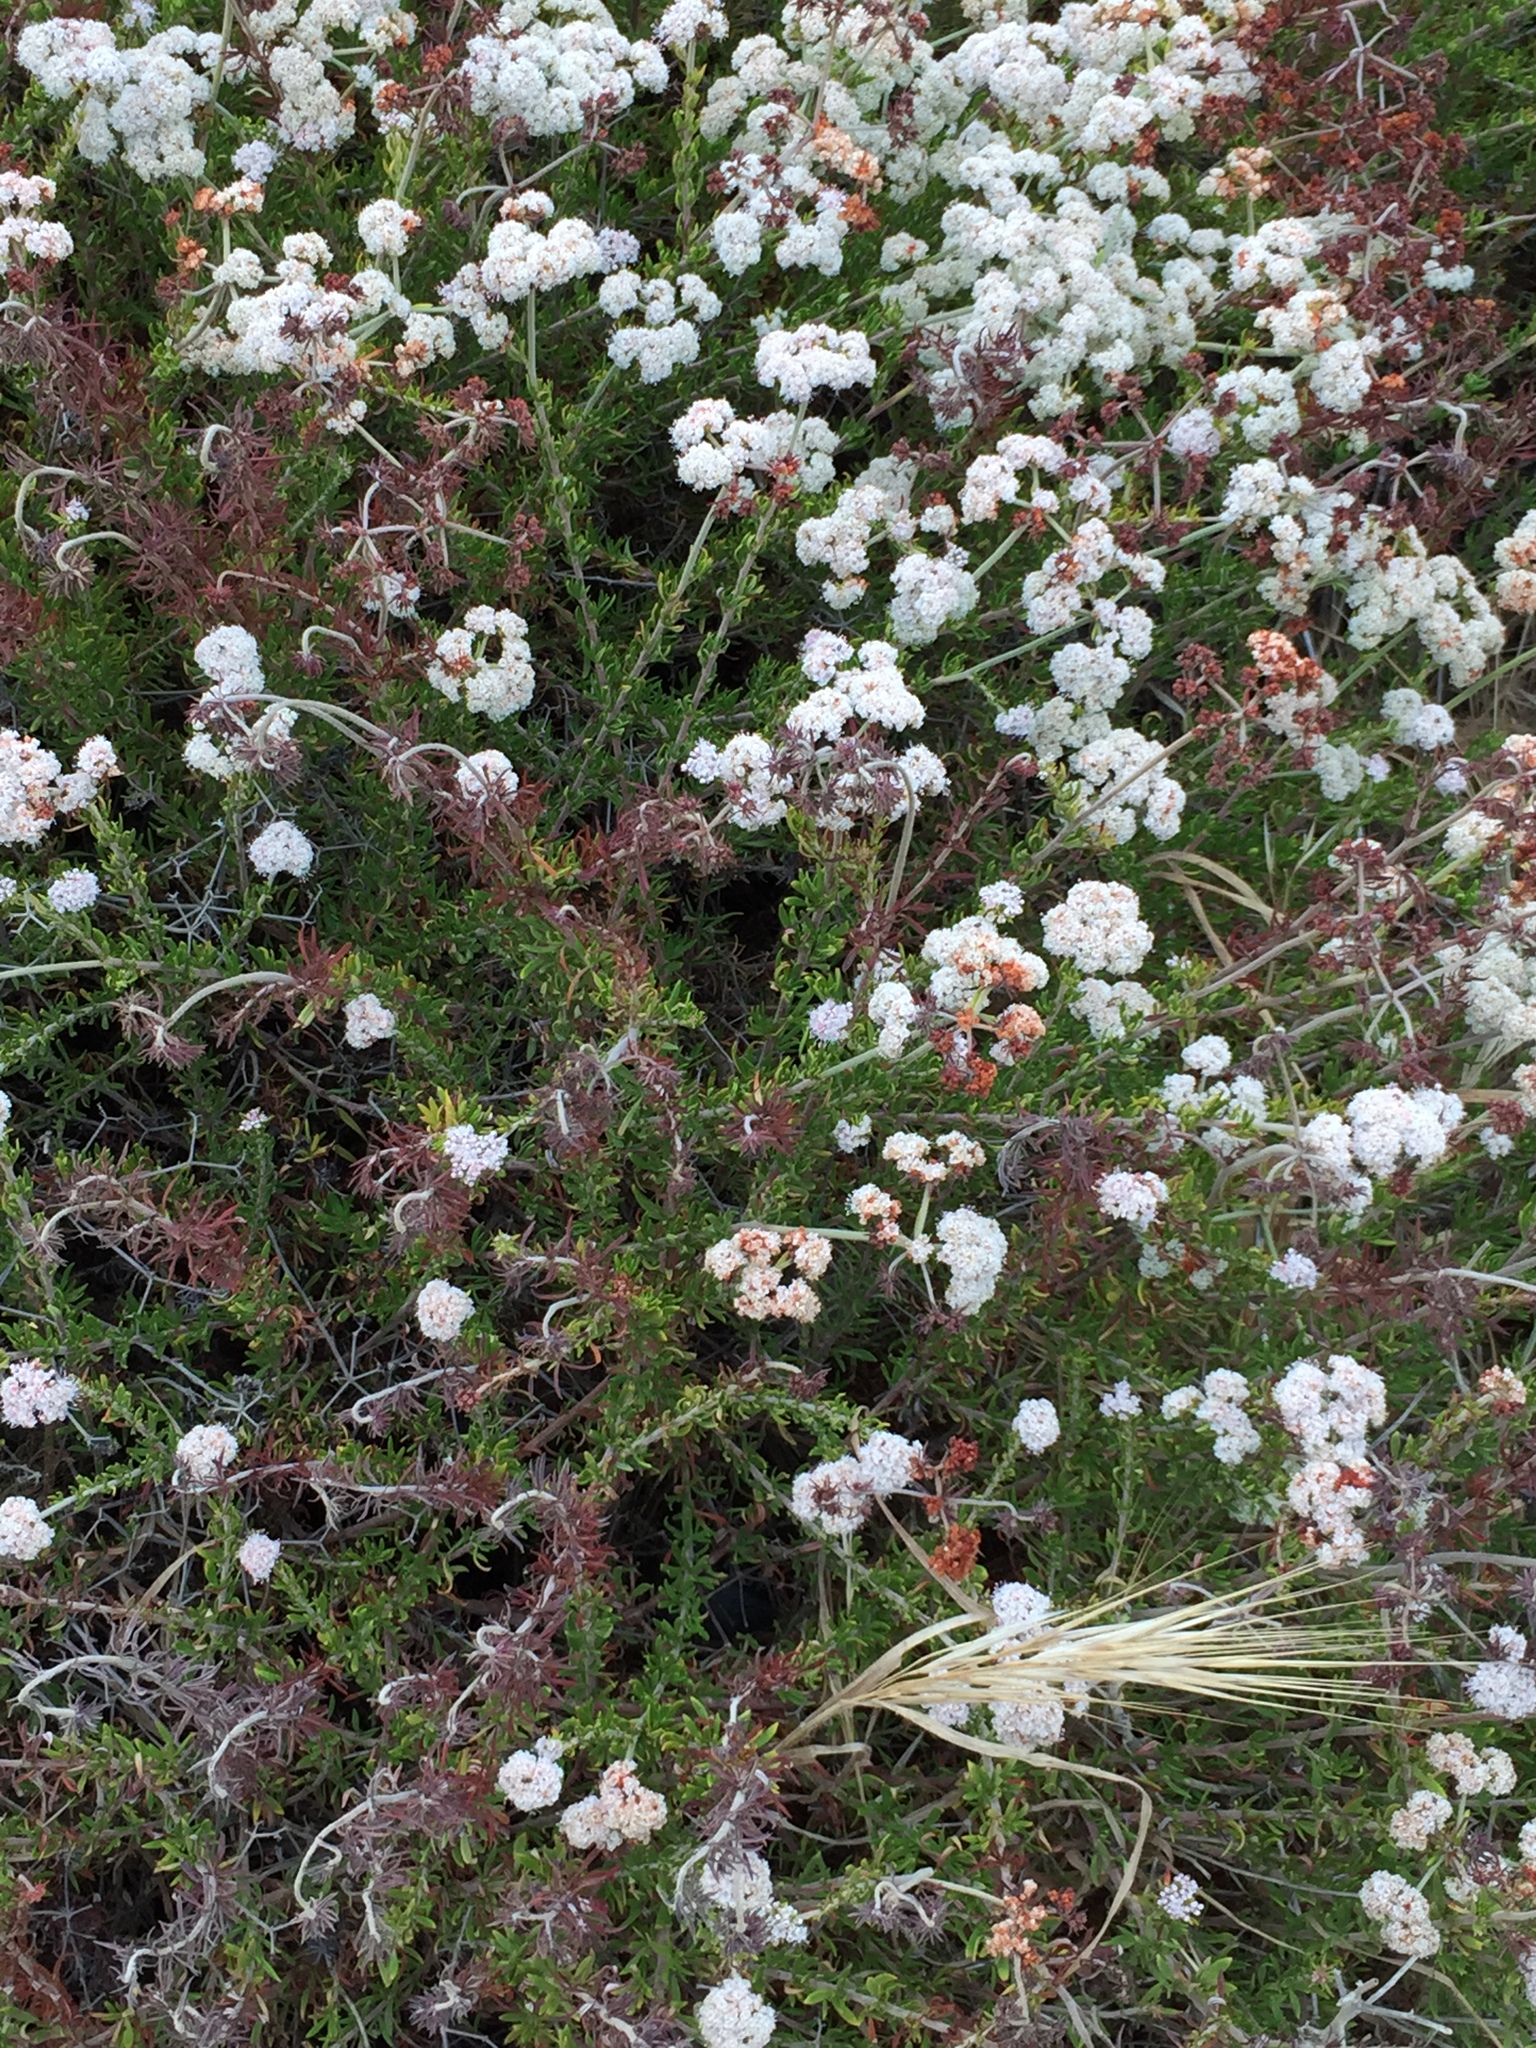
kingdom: Plantae
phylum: Tracheophyta
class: Magnoliopsida
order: Caryophyllales
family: Polygonaceae
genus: Eriogonum
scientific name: Eriogonum fasciculatum
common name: California wild buckwheat
